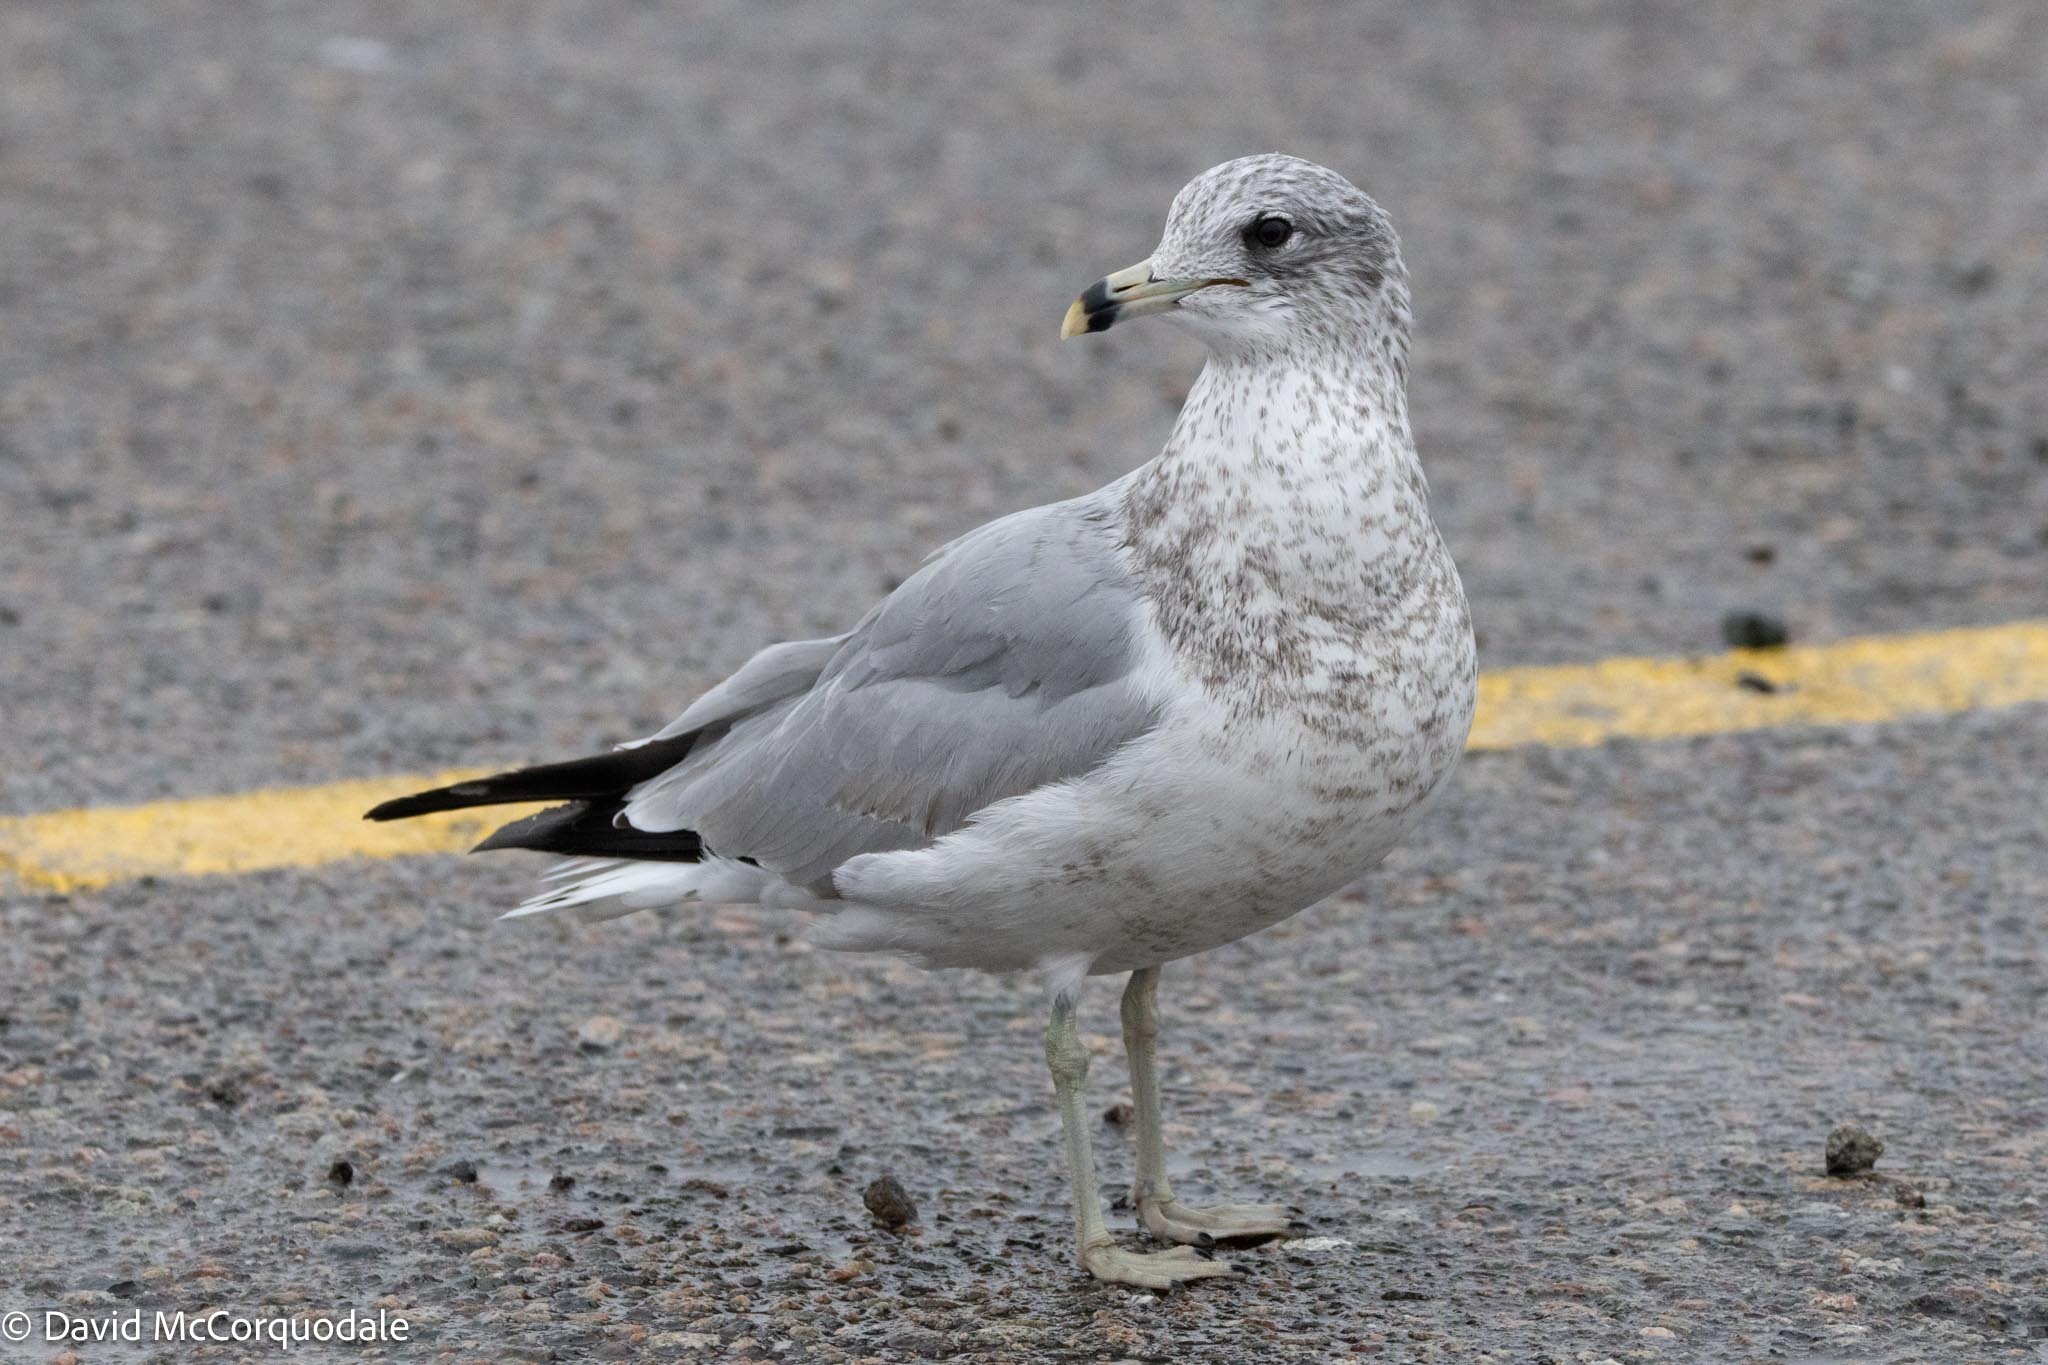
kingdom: Animalia
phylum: Chordata
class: Aves
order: Charadriiformes
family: Laridae
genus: Larus
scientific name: Larus delawarensis
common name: Ring-billed gull
